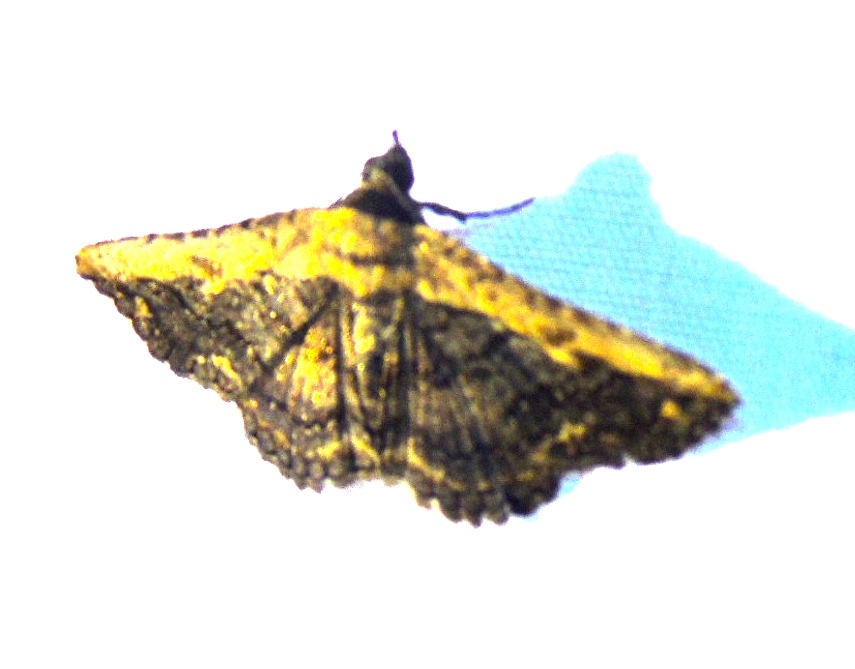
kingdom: Animalia
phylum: Arthropoda
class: Insecta
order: Lepidoptera
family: Erebidae
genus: Selenisa
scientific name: Selenisa sueroides
